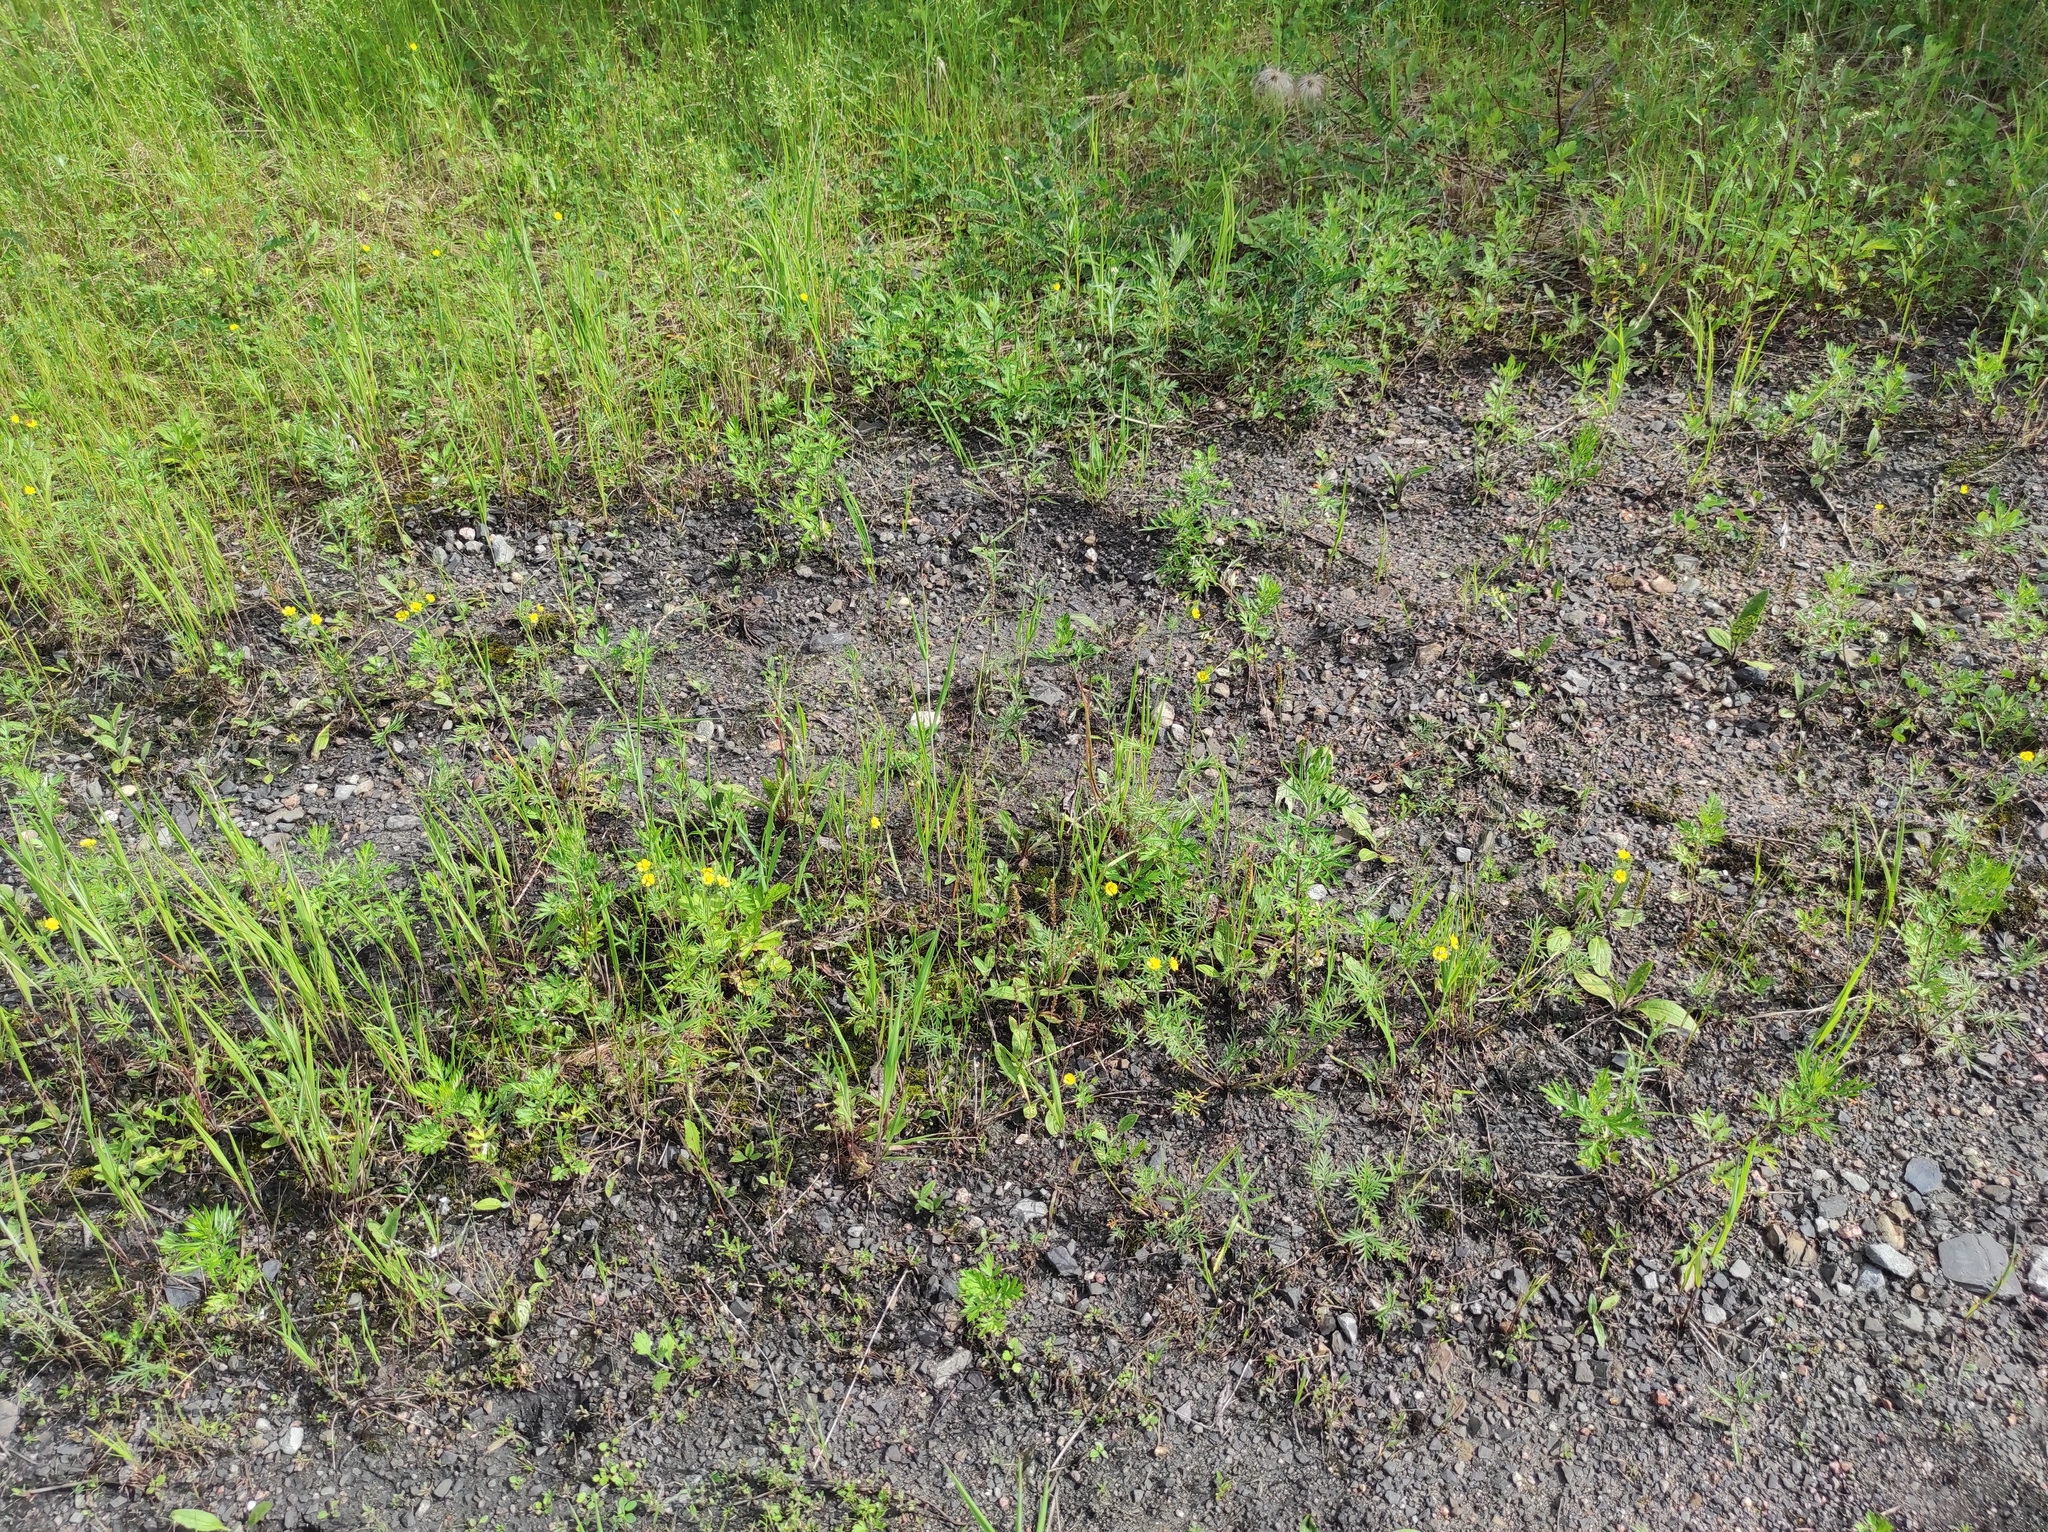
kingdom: Plantae
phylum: Tracheophyta
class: Magnoliopsida
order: Rosales
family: Rosaceae
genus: Potentilla
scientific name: Potentilla tergemina
